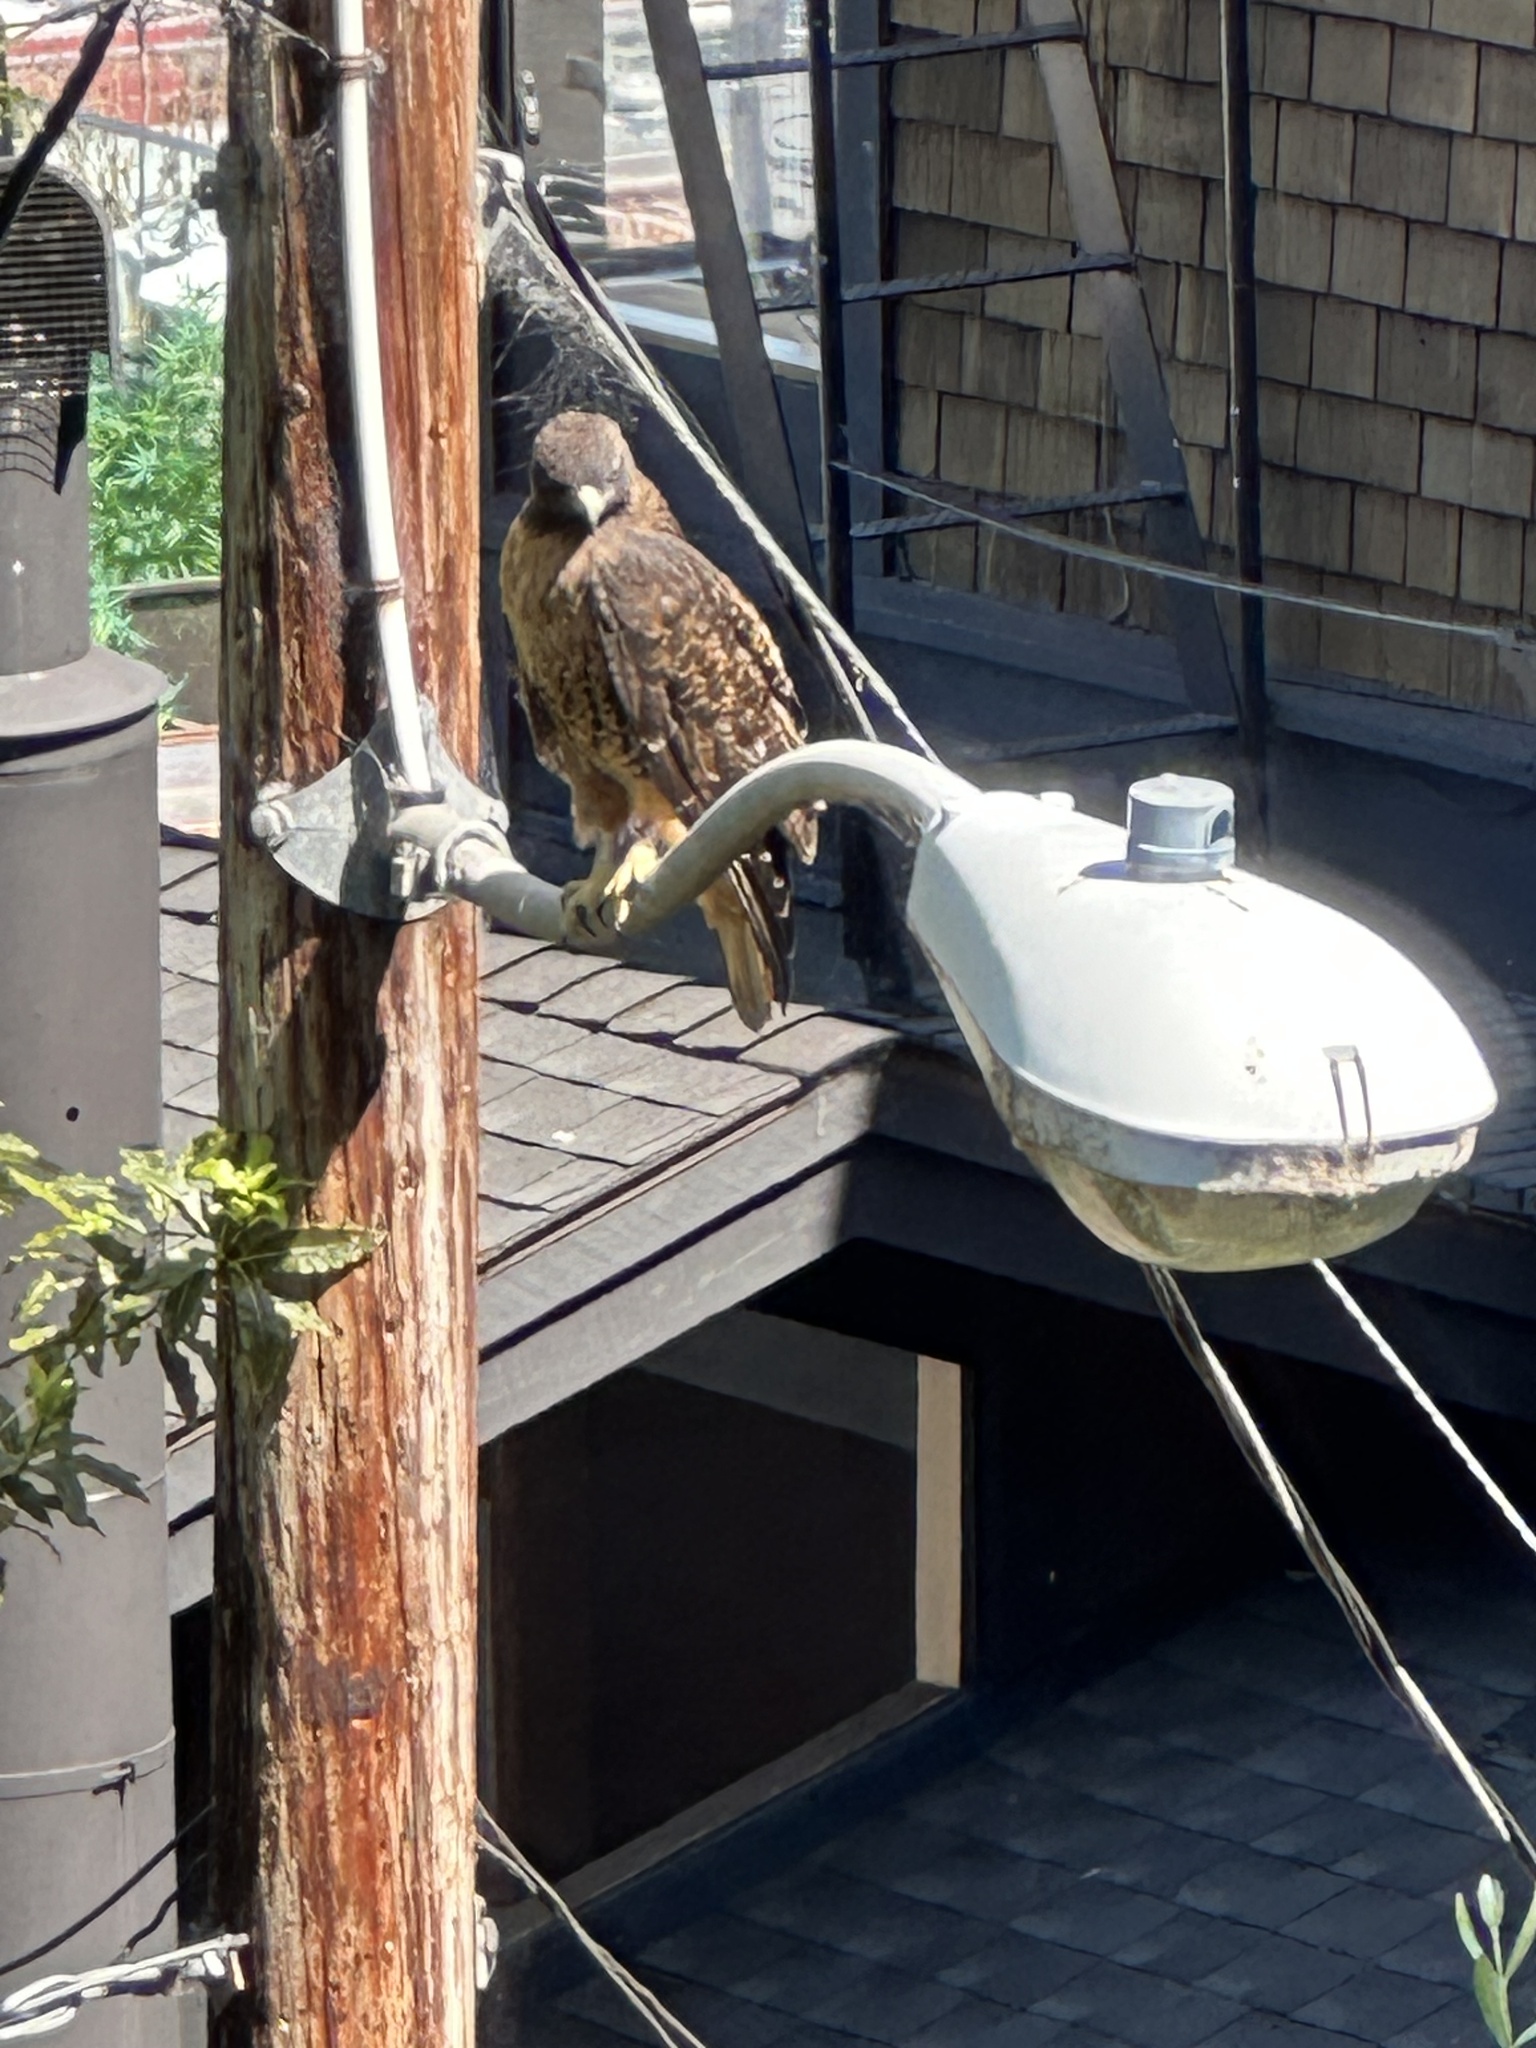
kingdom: Animalia
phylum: Chordata
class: Aves
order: Accipitriformes
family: Accipitridae
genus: Buteo
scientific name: Buteo jamaicensis
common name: Red-tailed hawk
